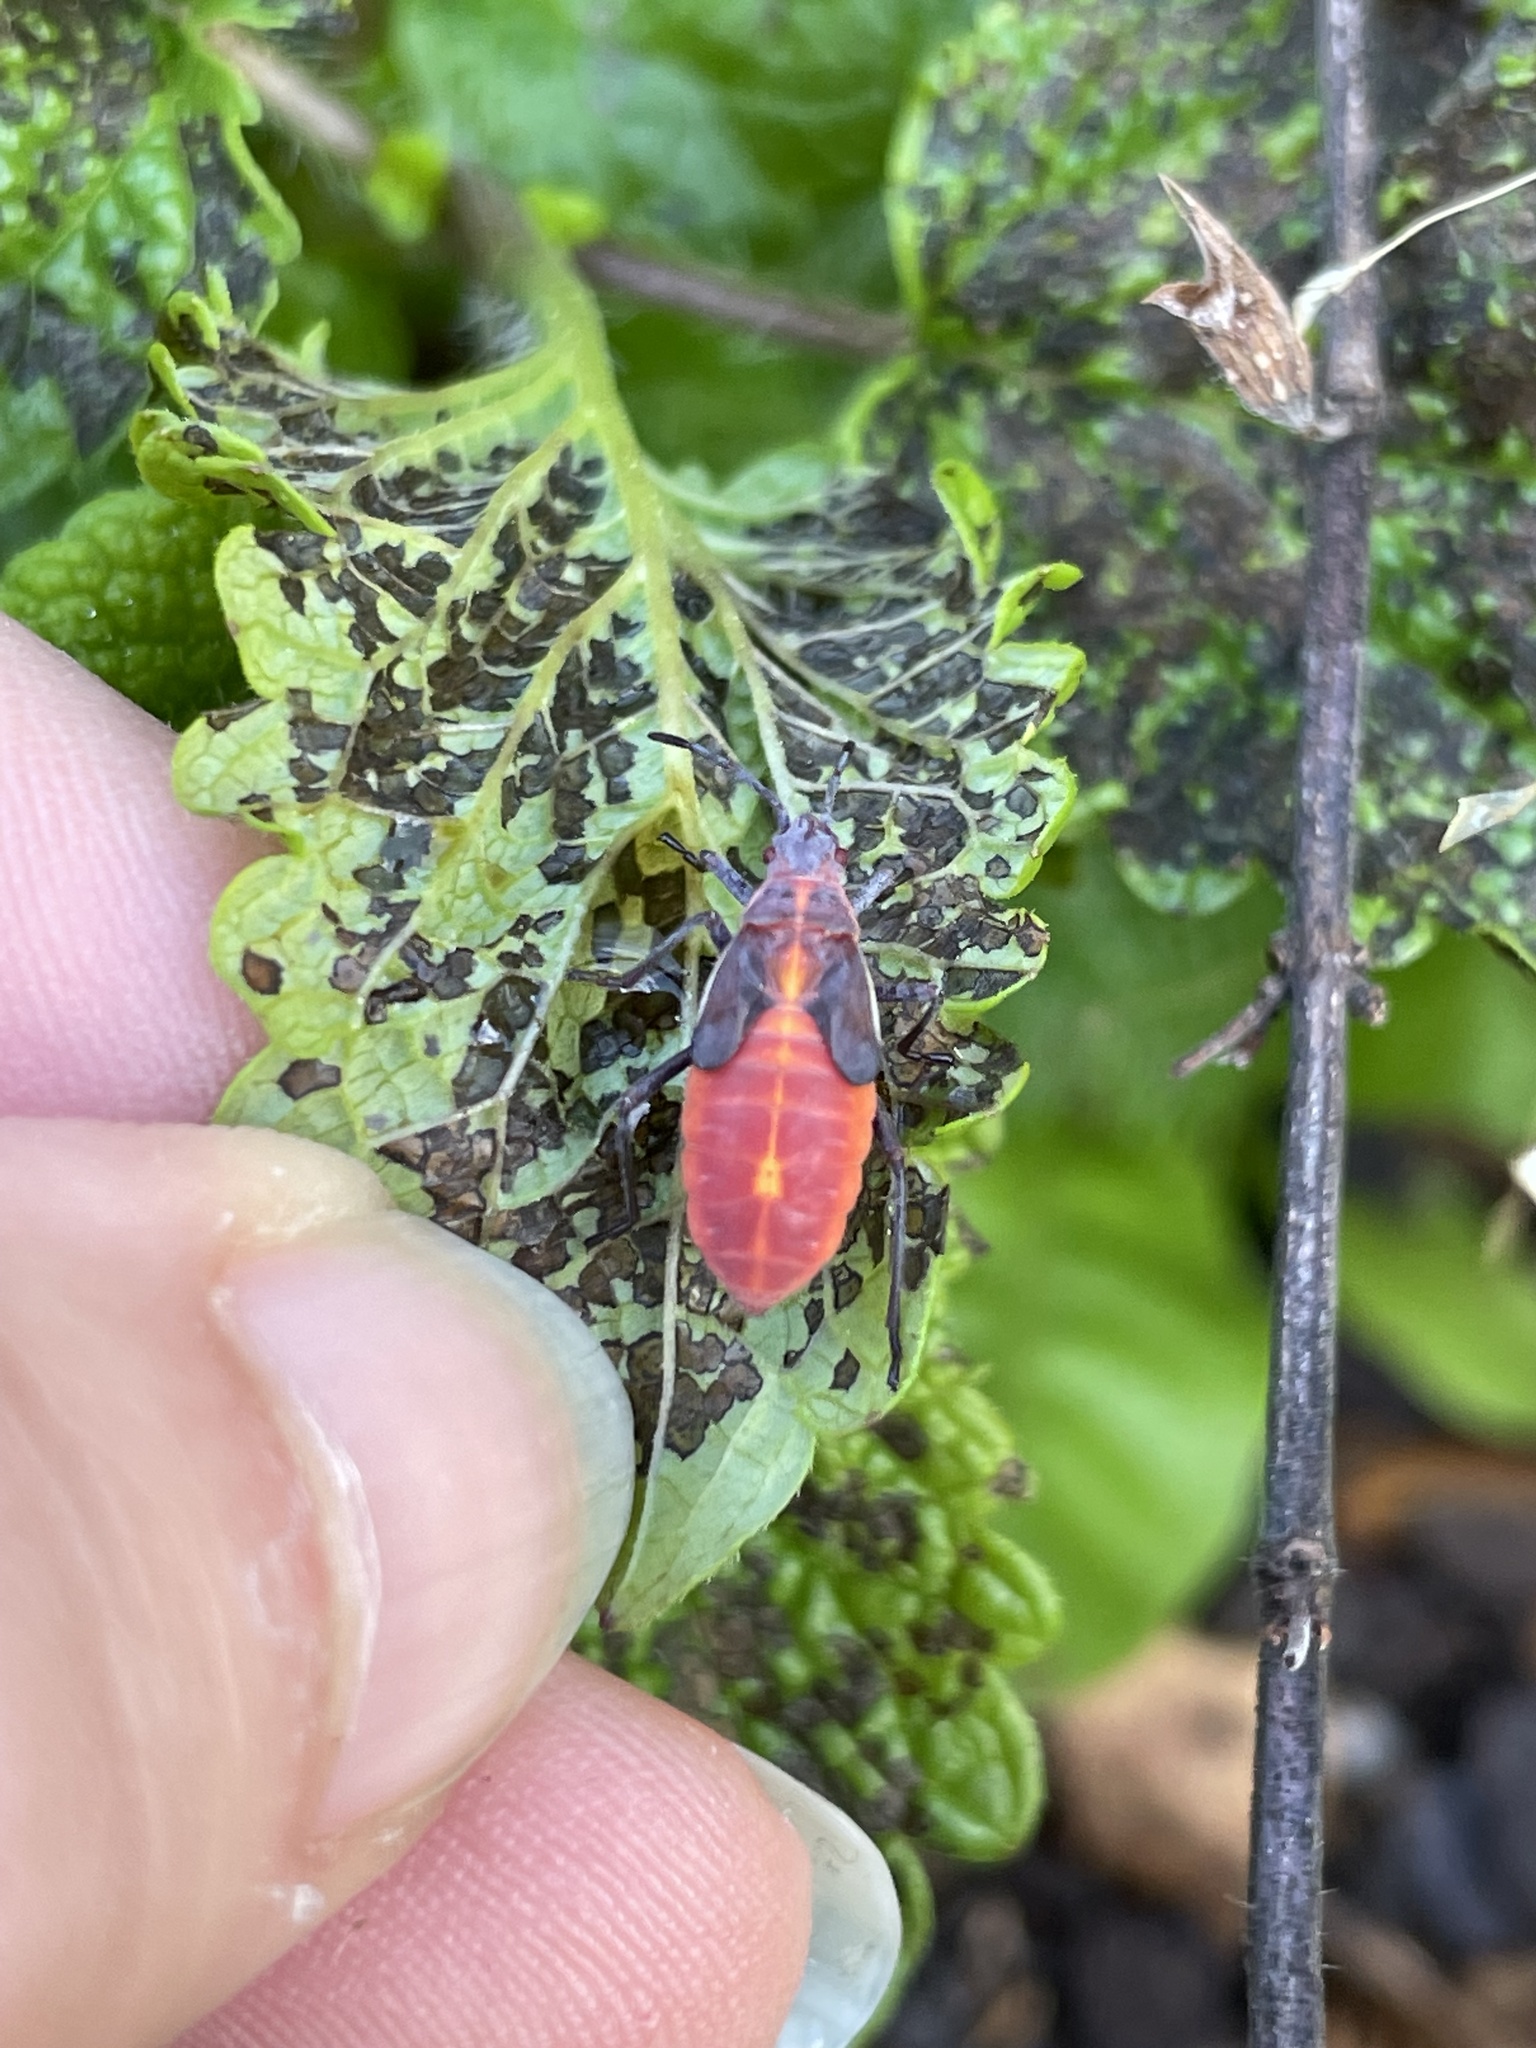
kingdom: Animalia
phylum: Arthropoda
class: Insecta
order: Hemiptera
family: Rhopalidae
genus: Boisea
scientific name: Boisea trivittata
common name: Boxelder bug
